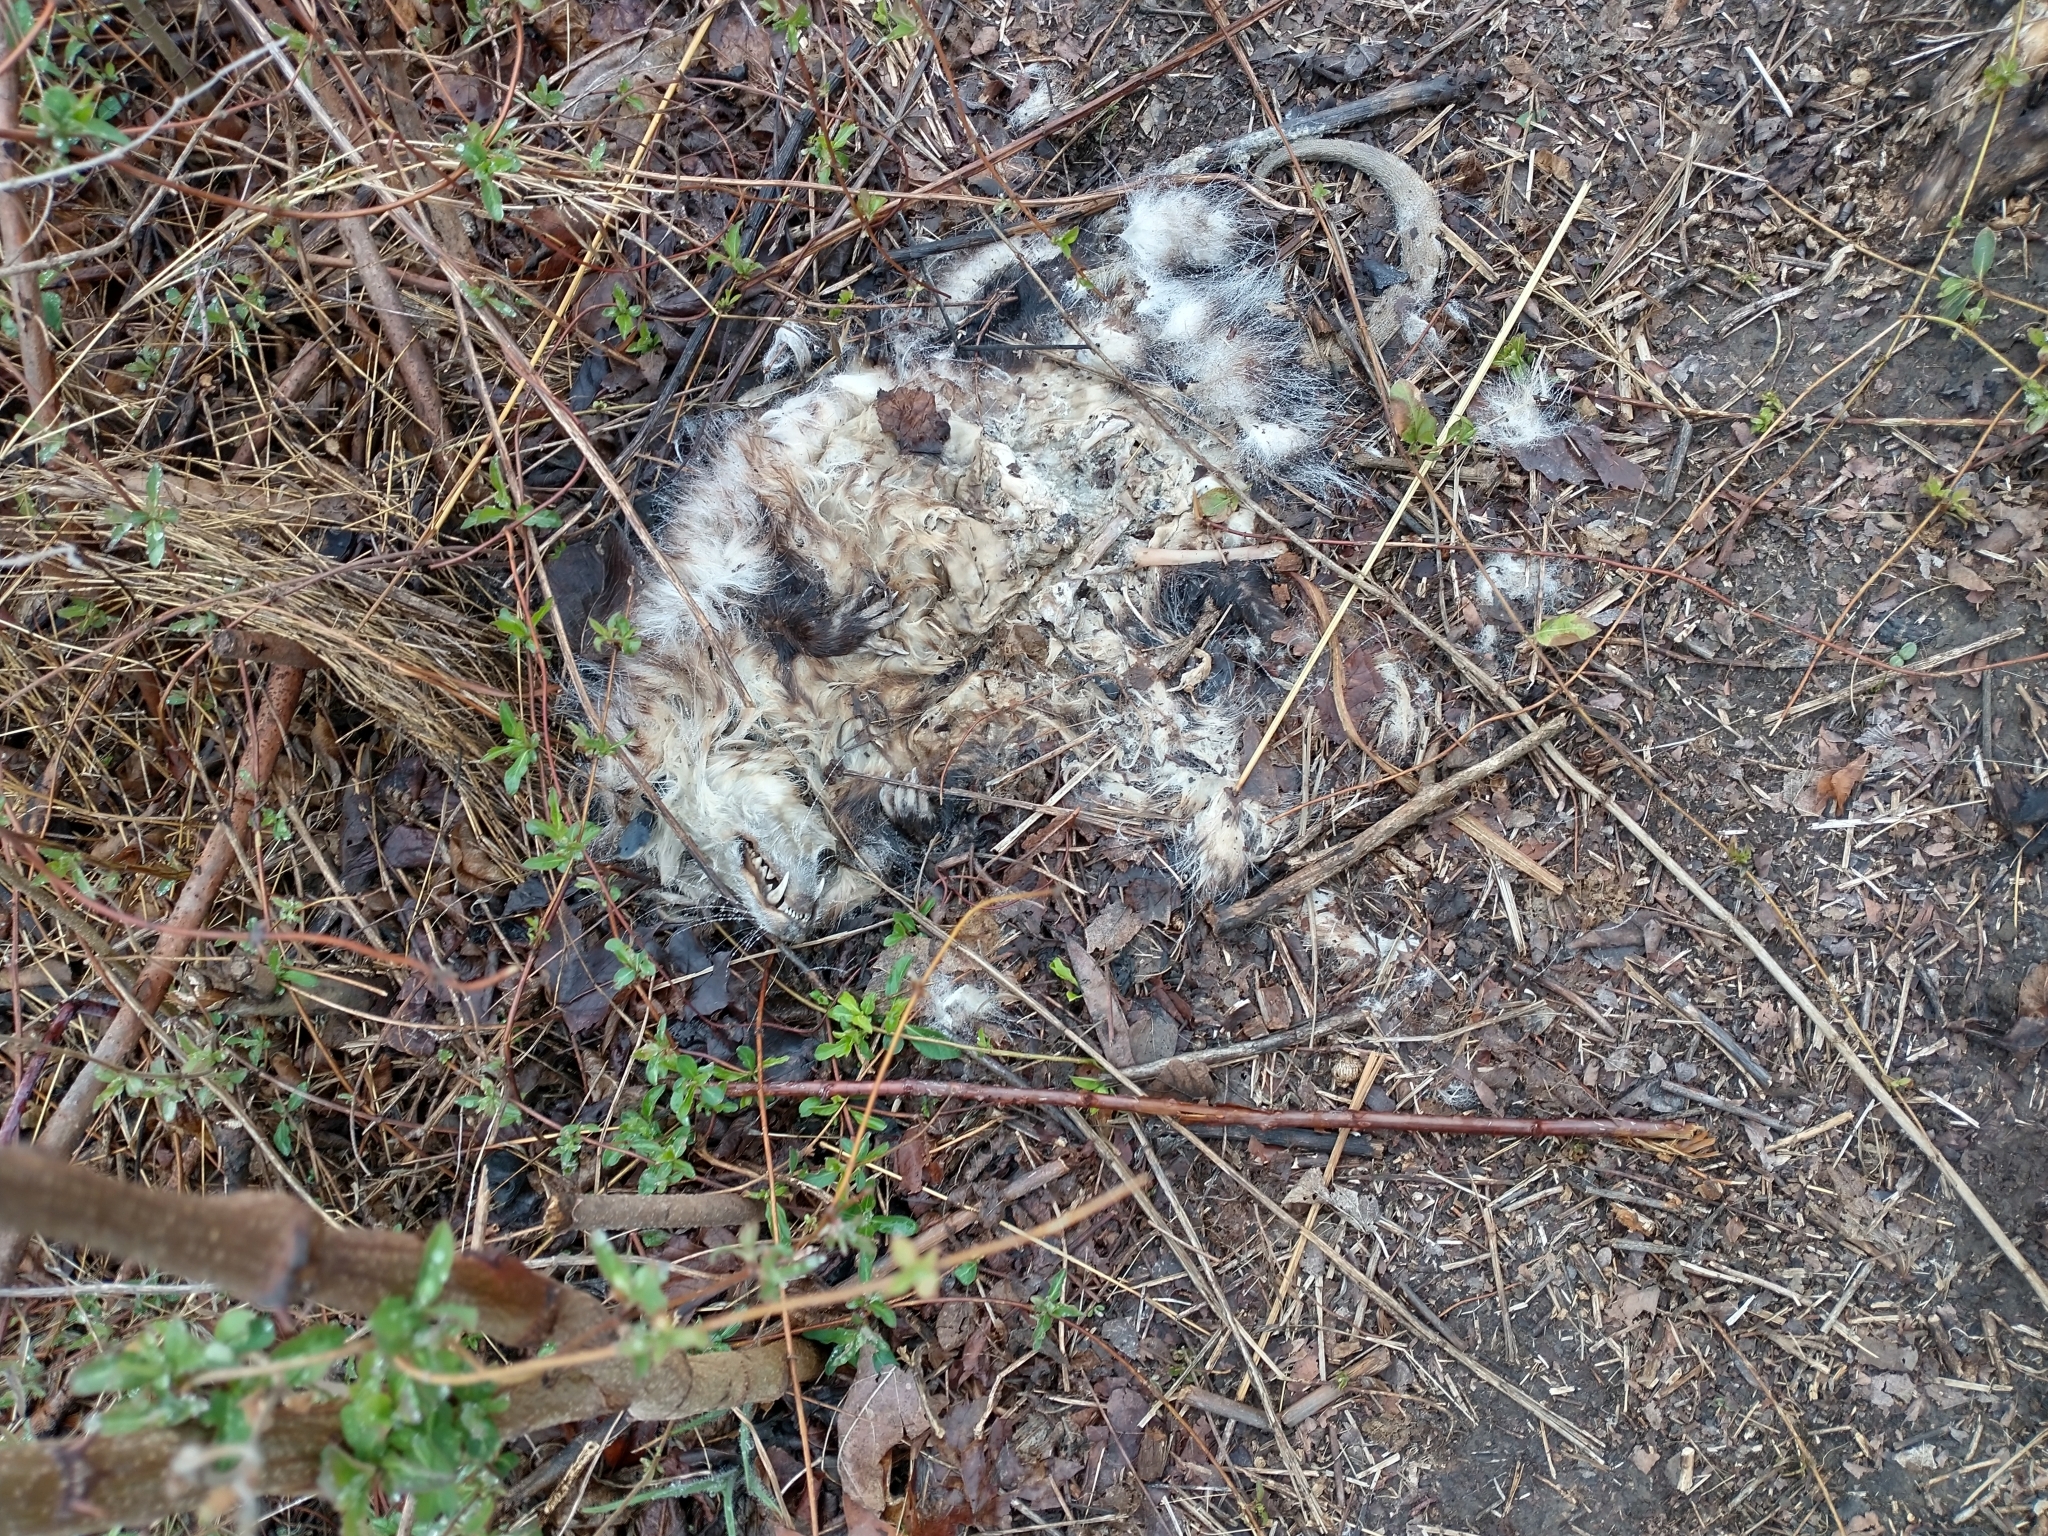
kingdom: Animalia
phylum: Chordata
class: Mammalia
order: Didelphimorphia
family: Didelphidae
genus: Didelphis
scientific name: Didelphis virginiana
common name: Virginia opossum
